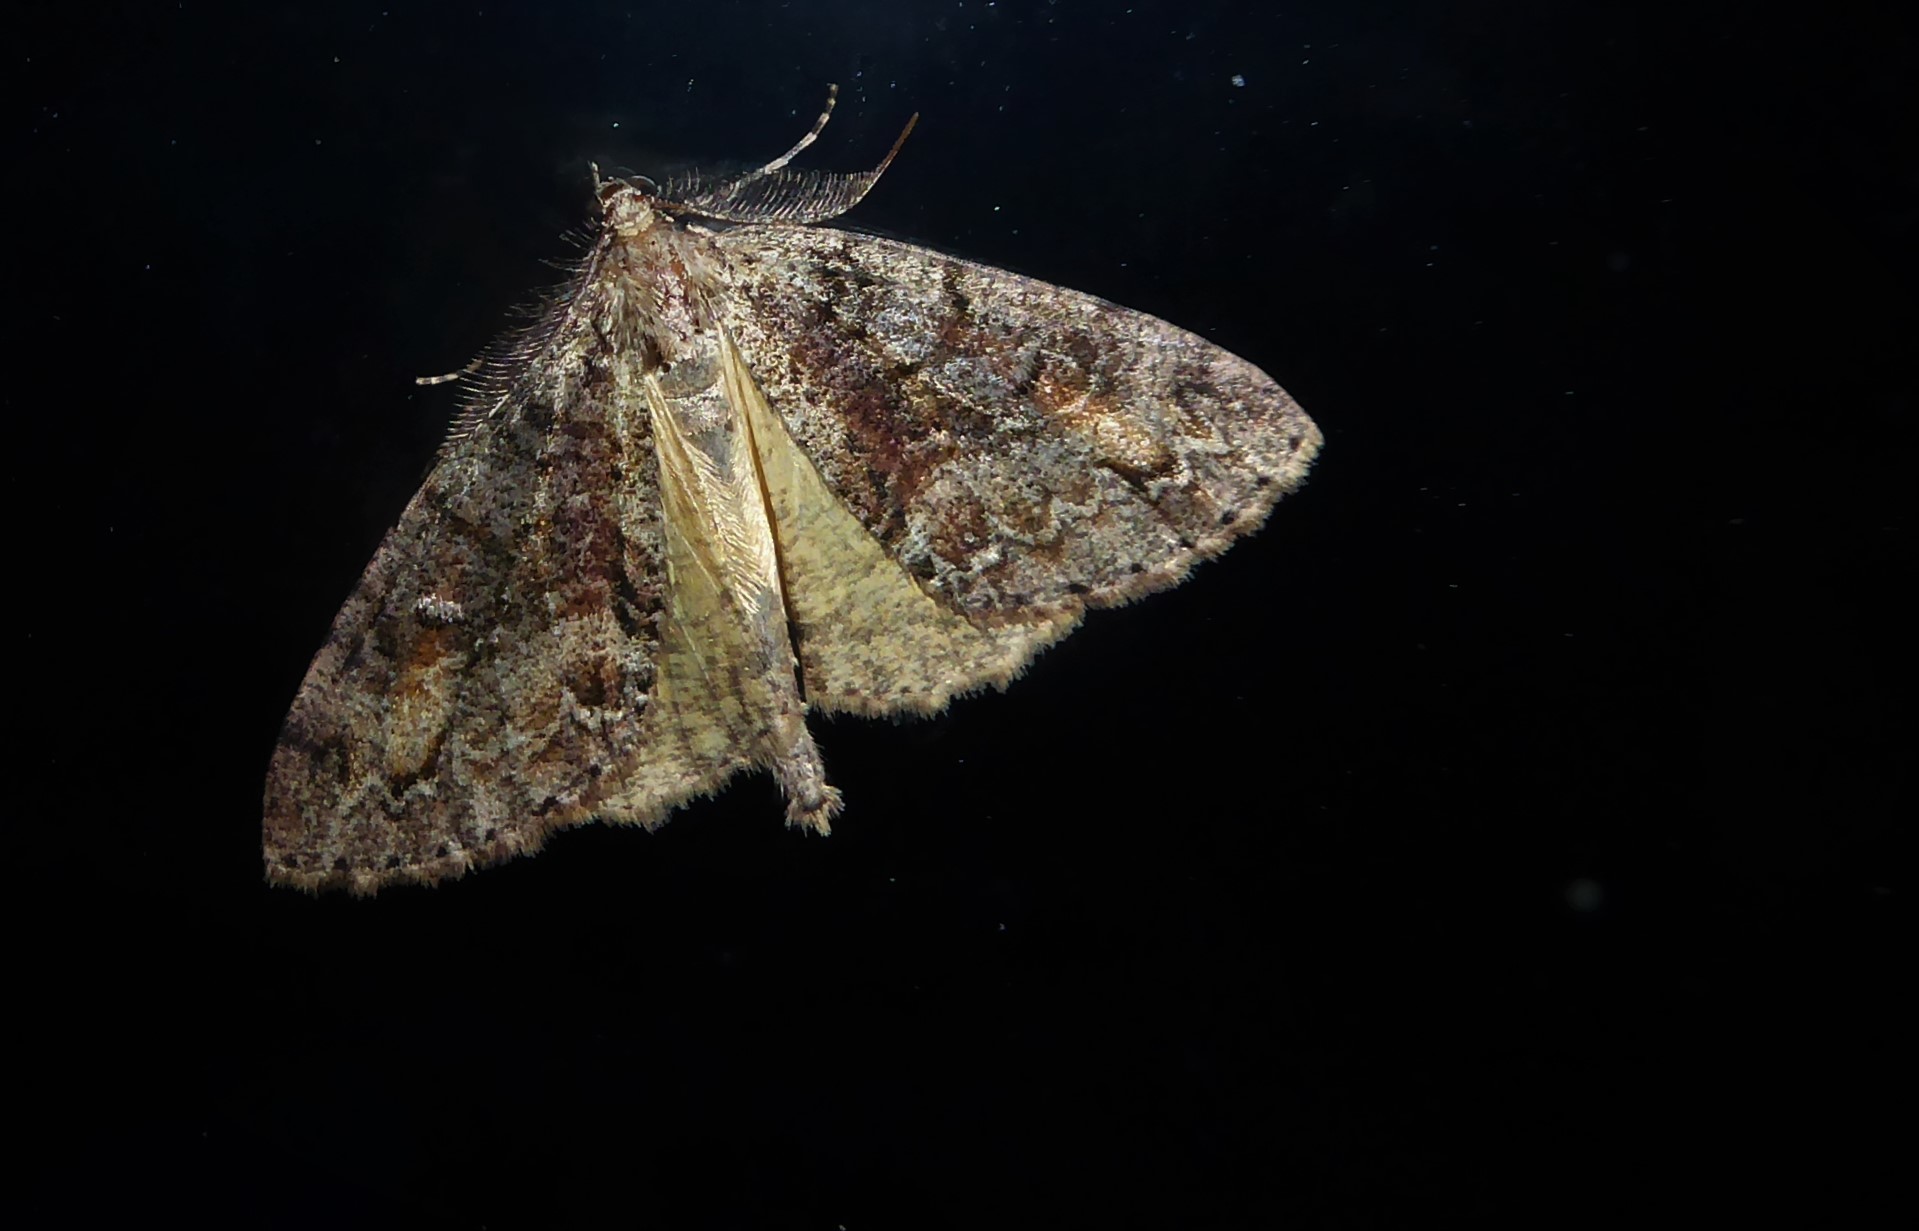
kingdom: Animalia
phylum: Arthropoda
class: Insecta
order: Lepidoptera
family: Geometridae
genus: Pseudocoremia
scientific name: Pseudocoremia suavis
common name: Common forest looper
